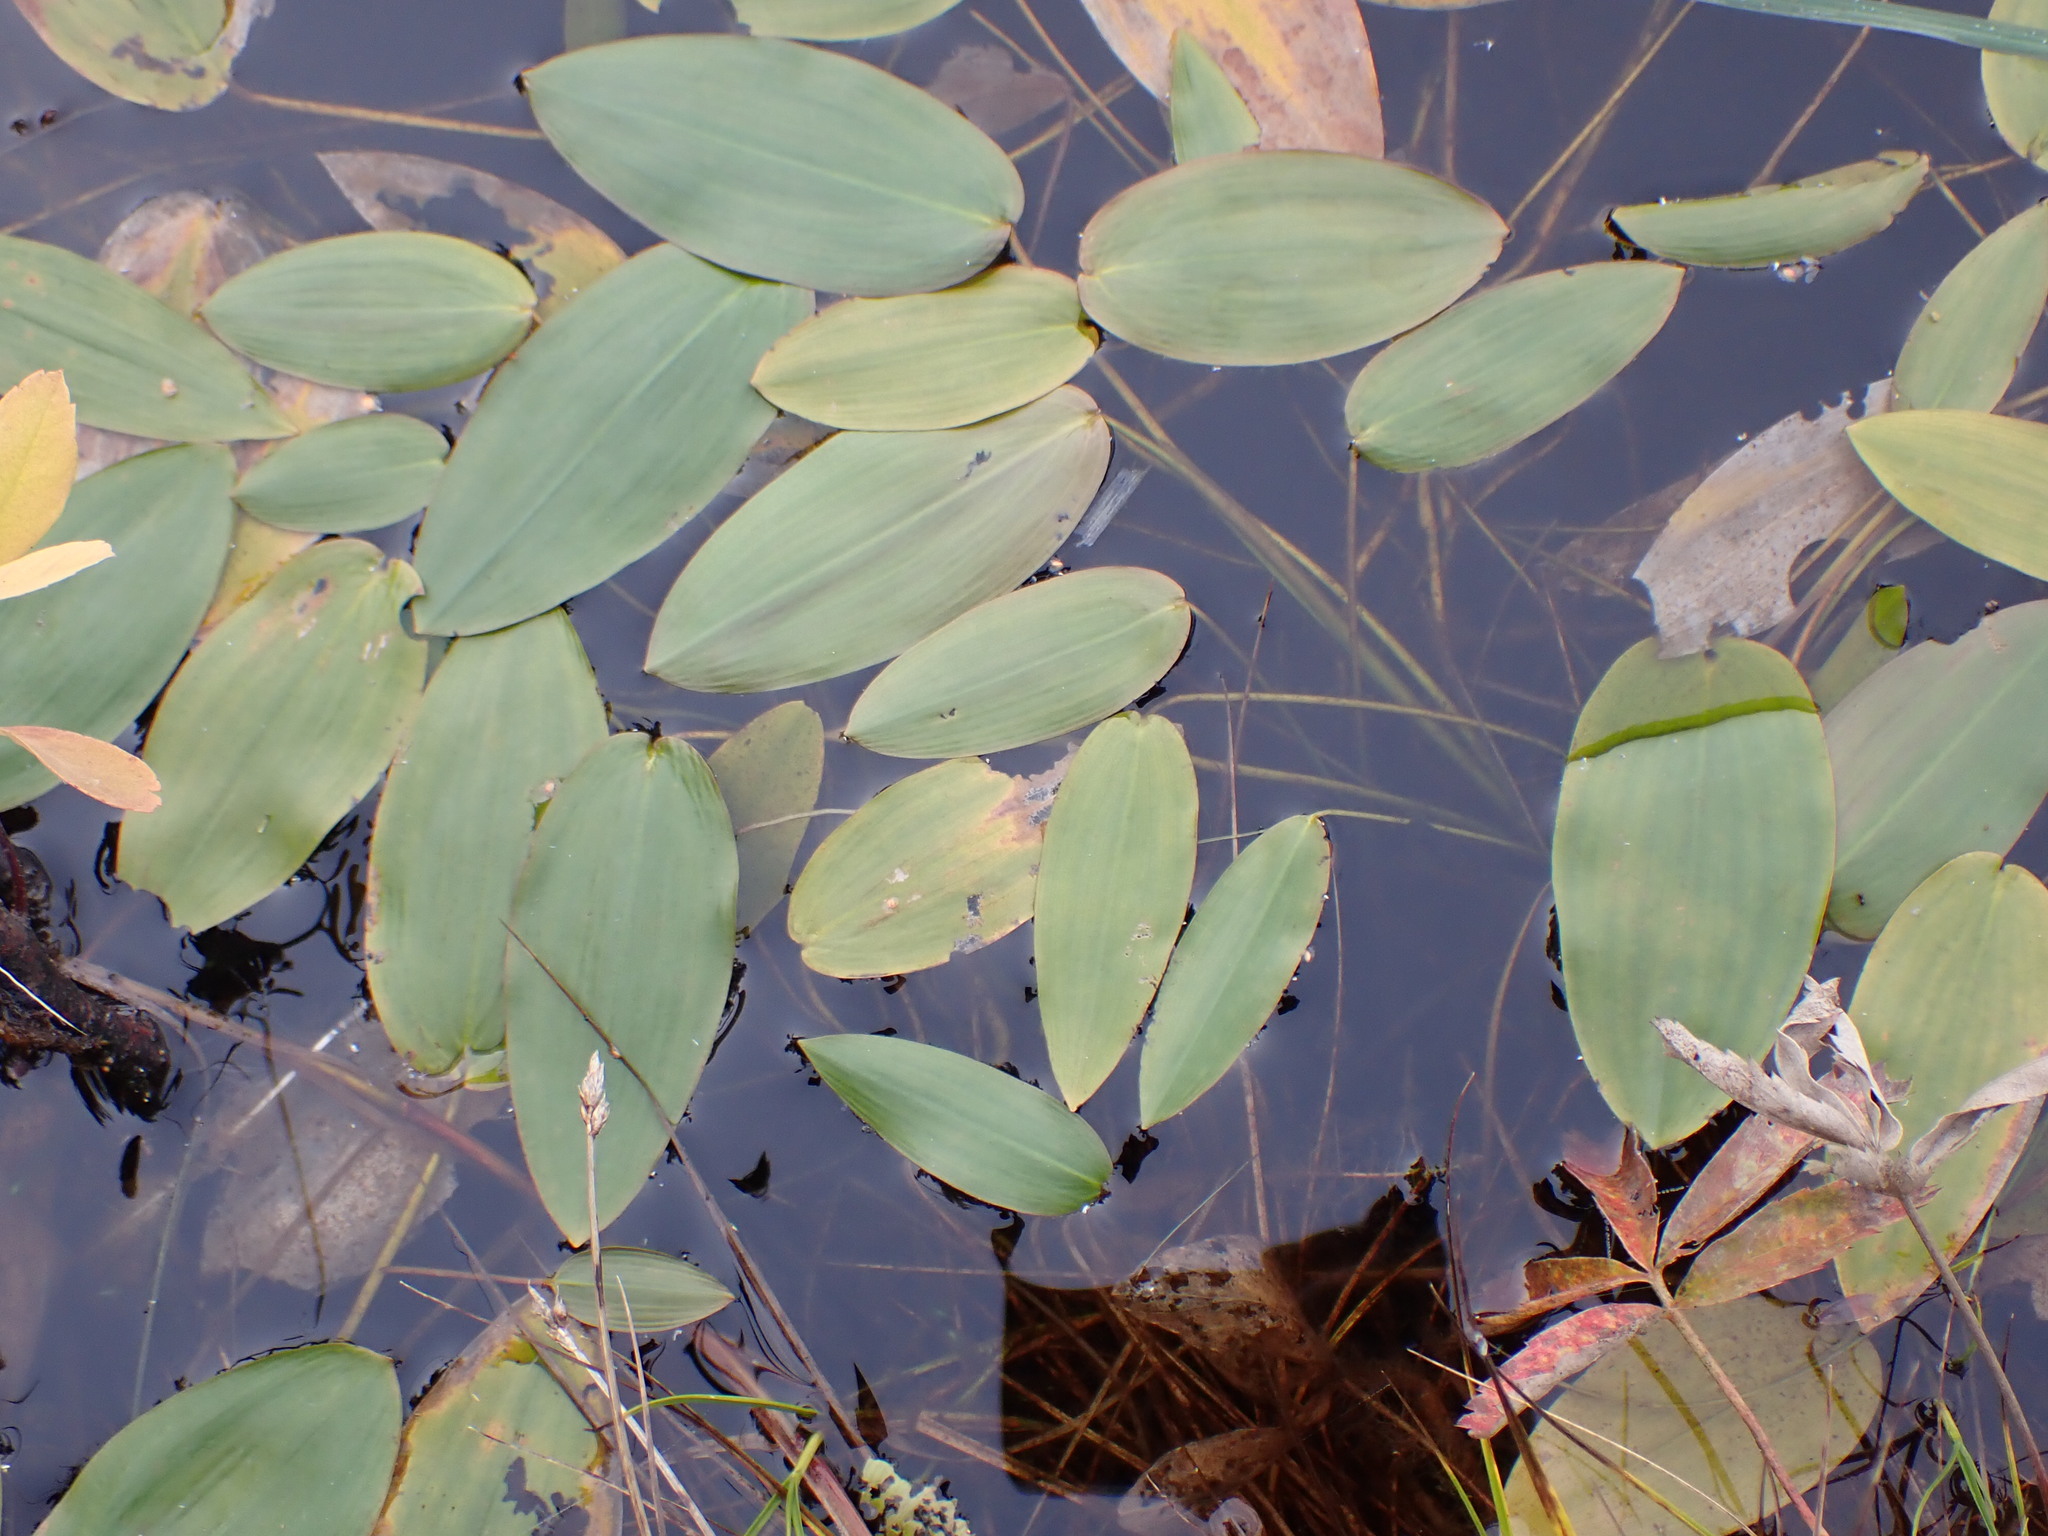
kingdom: Plantae
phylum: Tracheophyta
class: Liliopsida
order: Alismatales
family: Potamogetonaceae
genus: Potamogeton
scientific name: Potamogeton natans
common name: Broad-leaved pondweed
